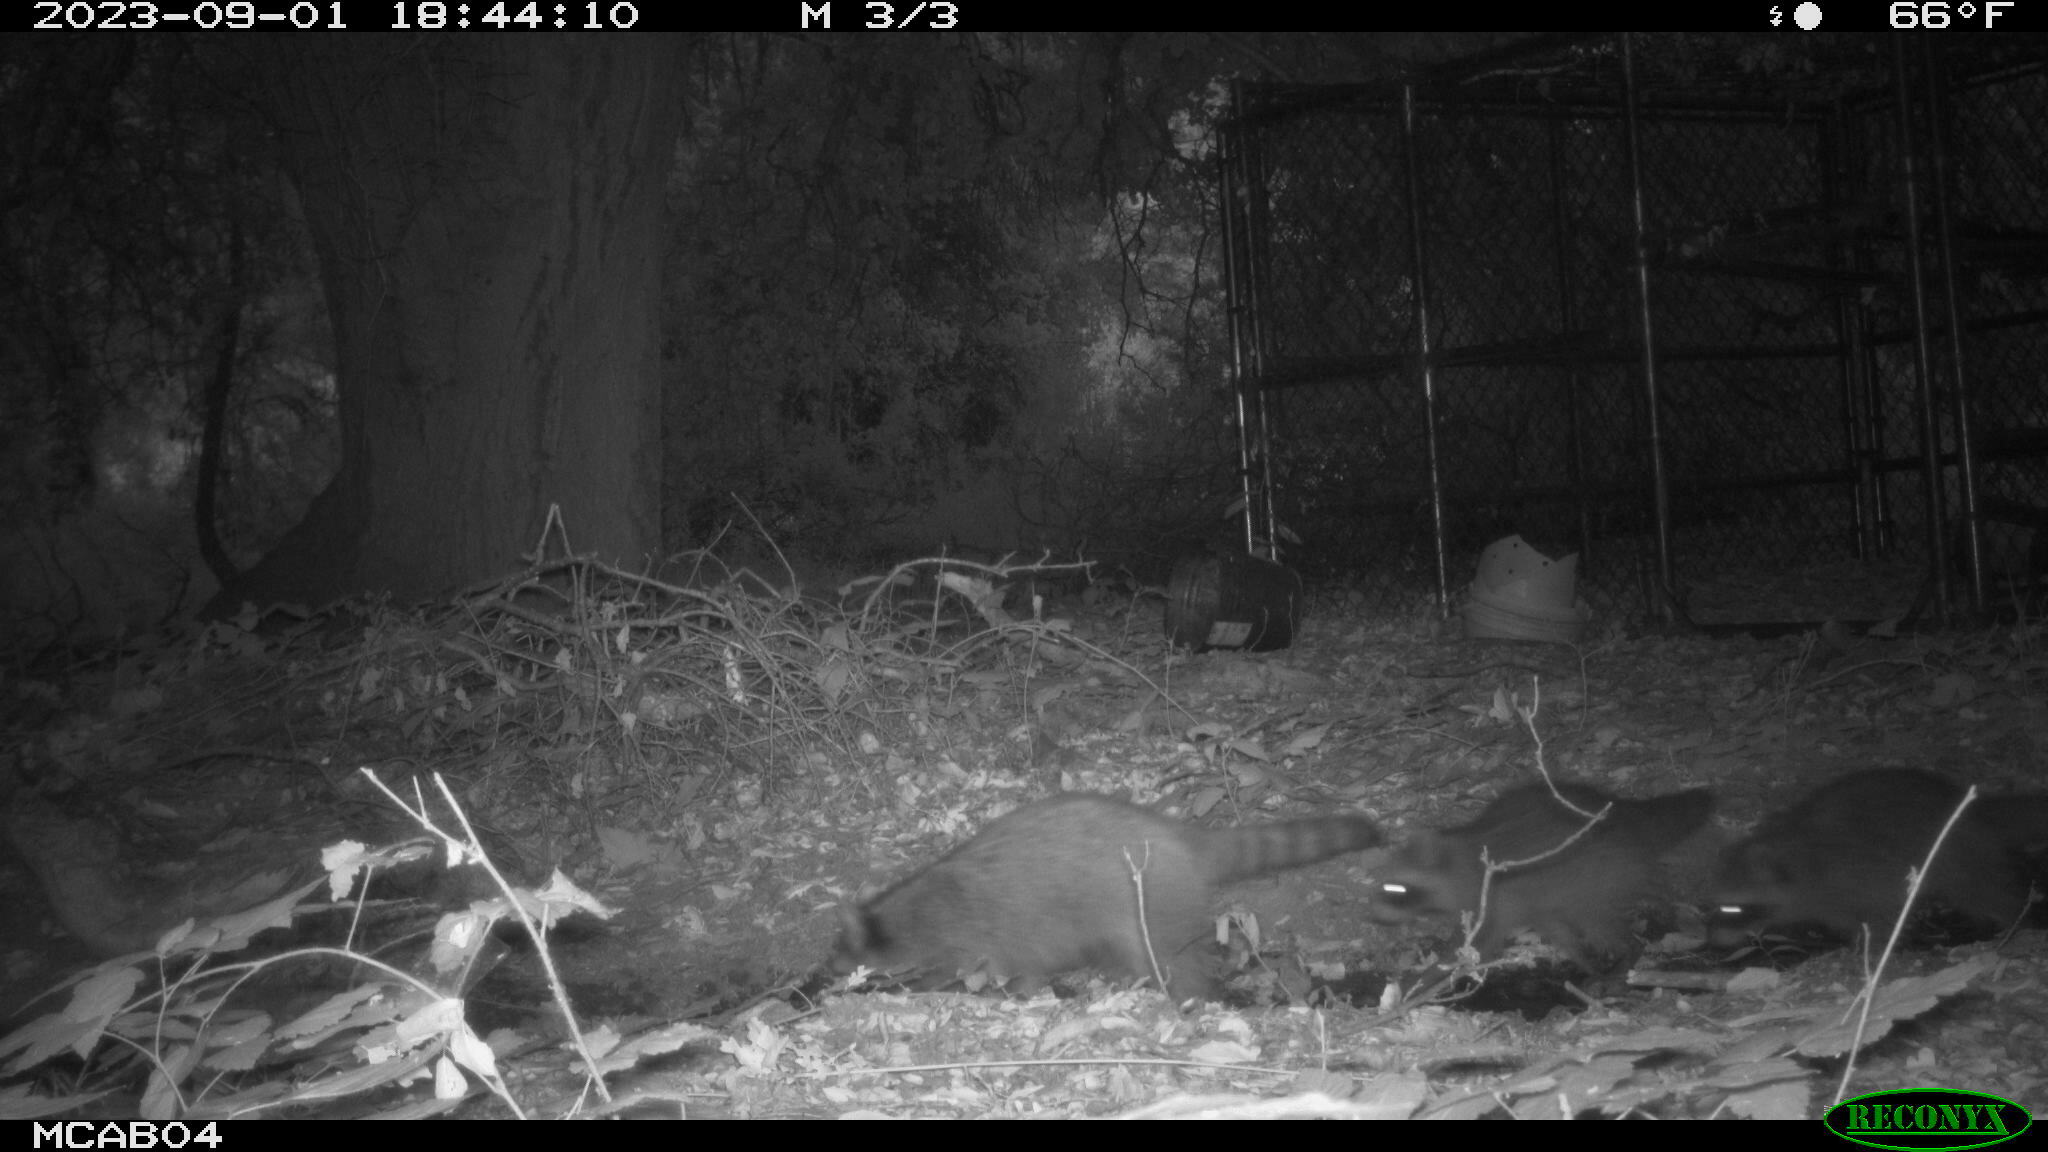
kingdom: Animalia
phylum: Chordata
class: Mammalia
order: Carnivora
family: Procyonidae
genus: Procyon
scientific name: Procyon lotor
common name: Raccoon
